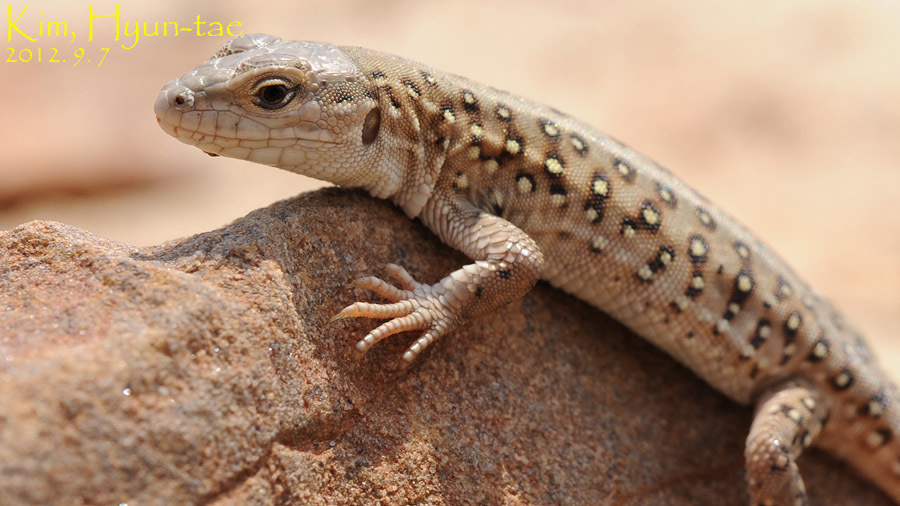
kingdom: Animalia
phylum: Chordata
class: Squamata
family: Lacertidae
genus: Eremias
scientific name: Eremias argus
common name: Mongolia racerunner
